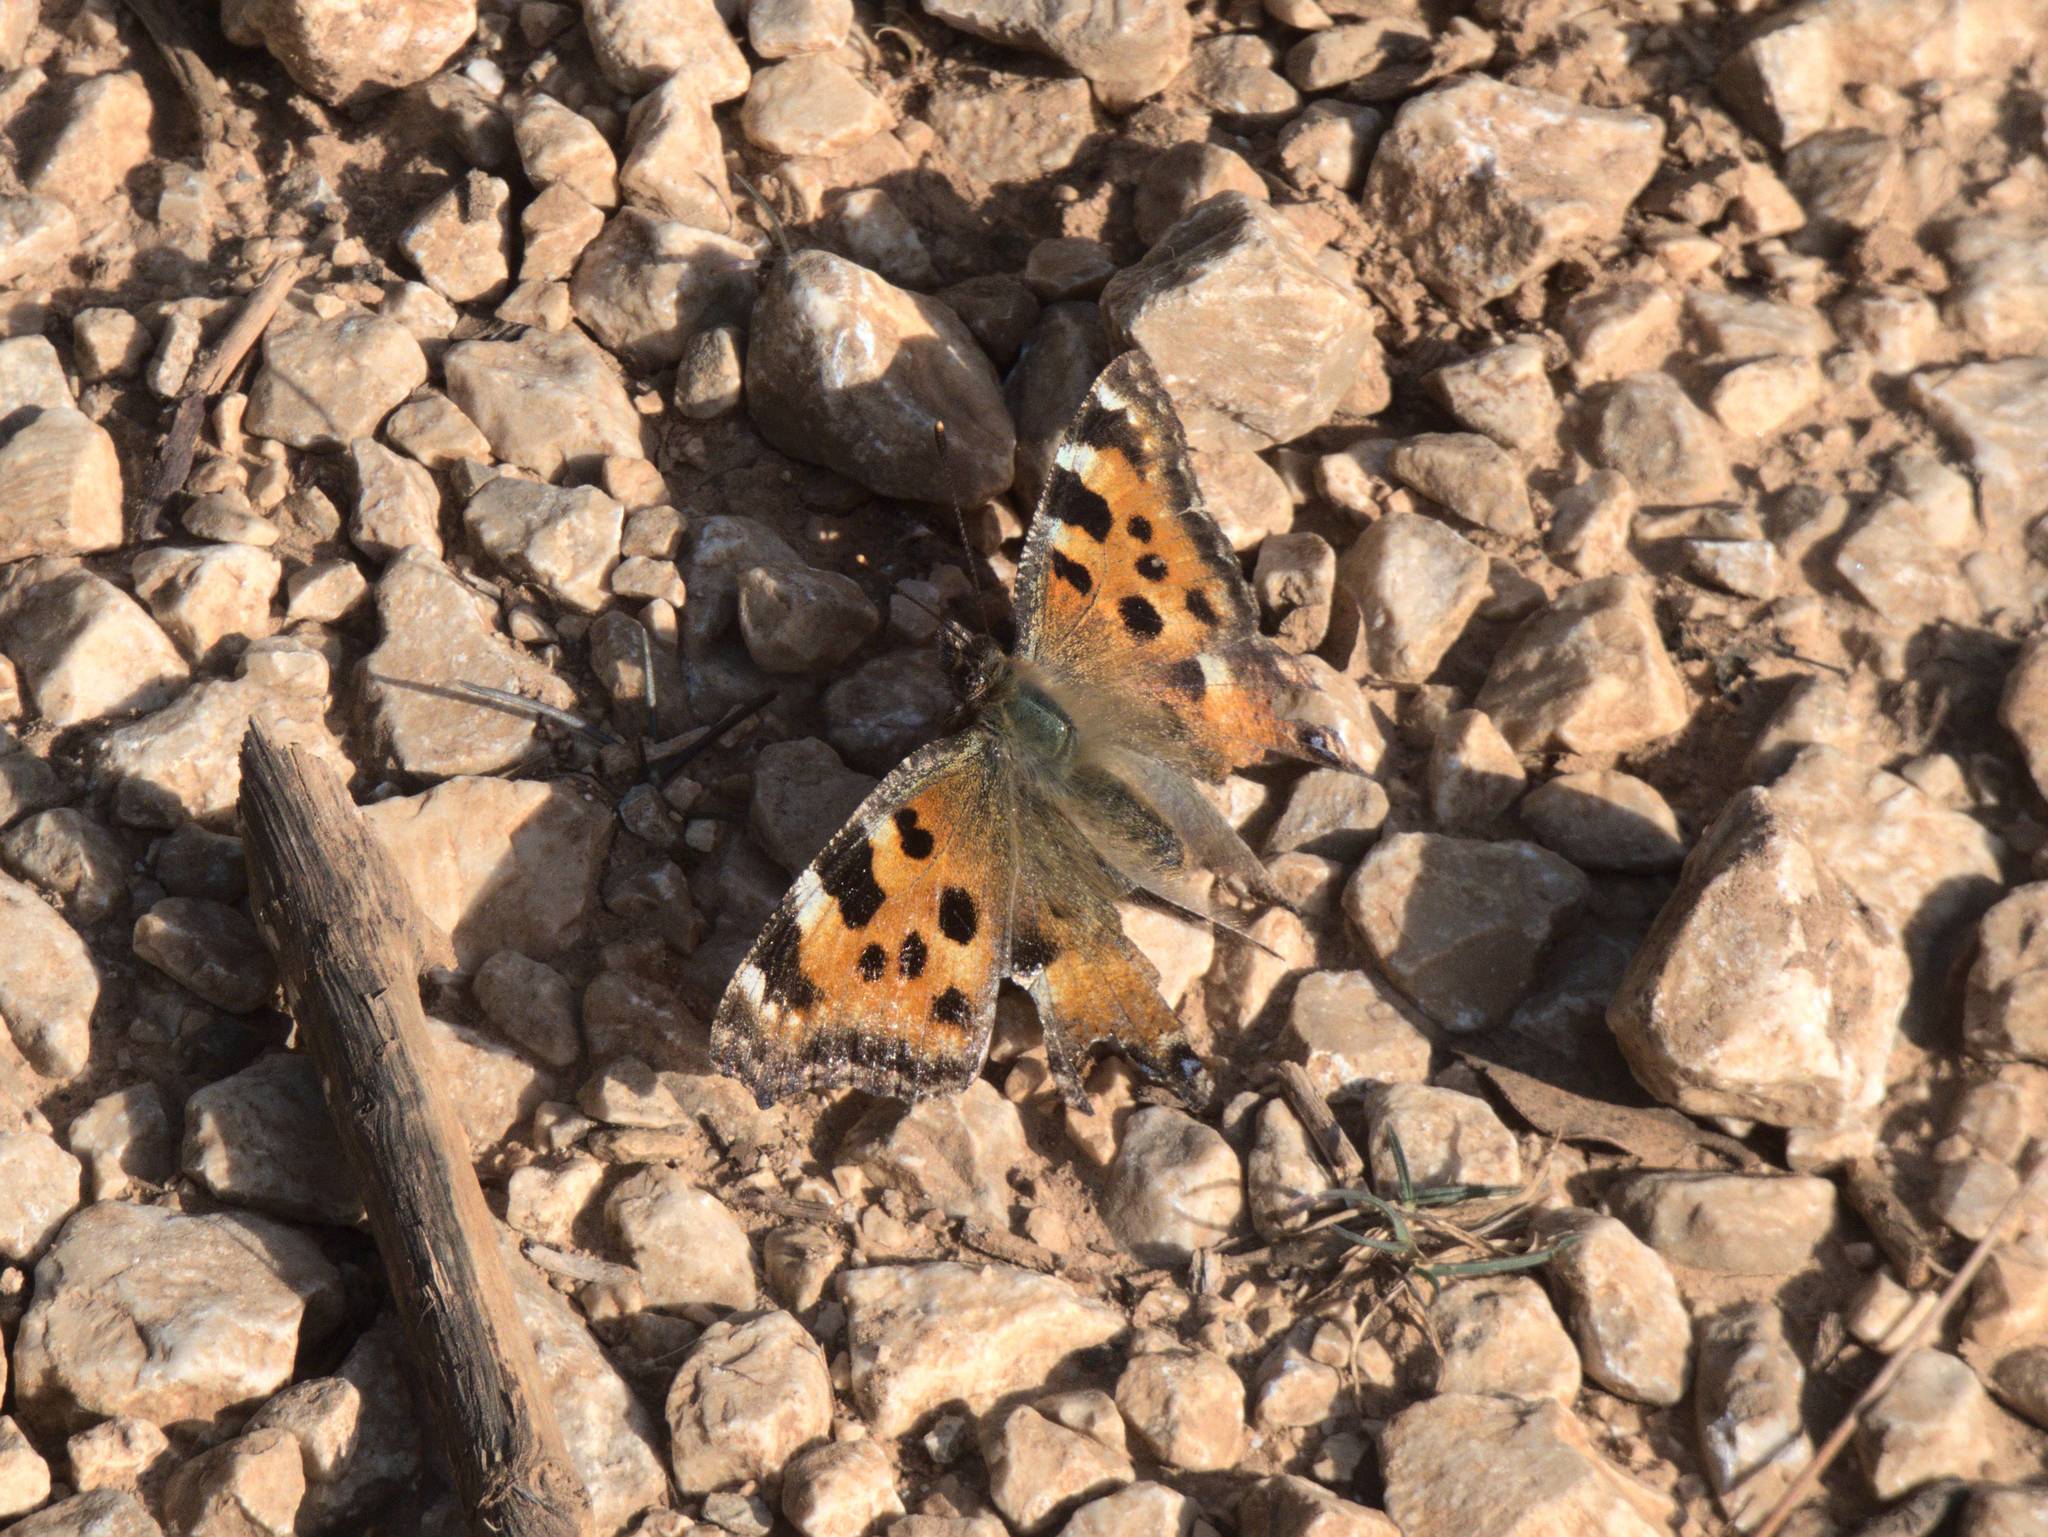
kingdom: Animalia
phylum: Arthropoda
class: Insecta
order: Lepidoptera
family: Nymphalidae
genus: Nymphalis
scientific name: Nymphalis polychloros
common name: Large tortoiseshell
